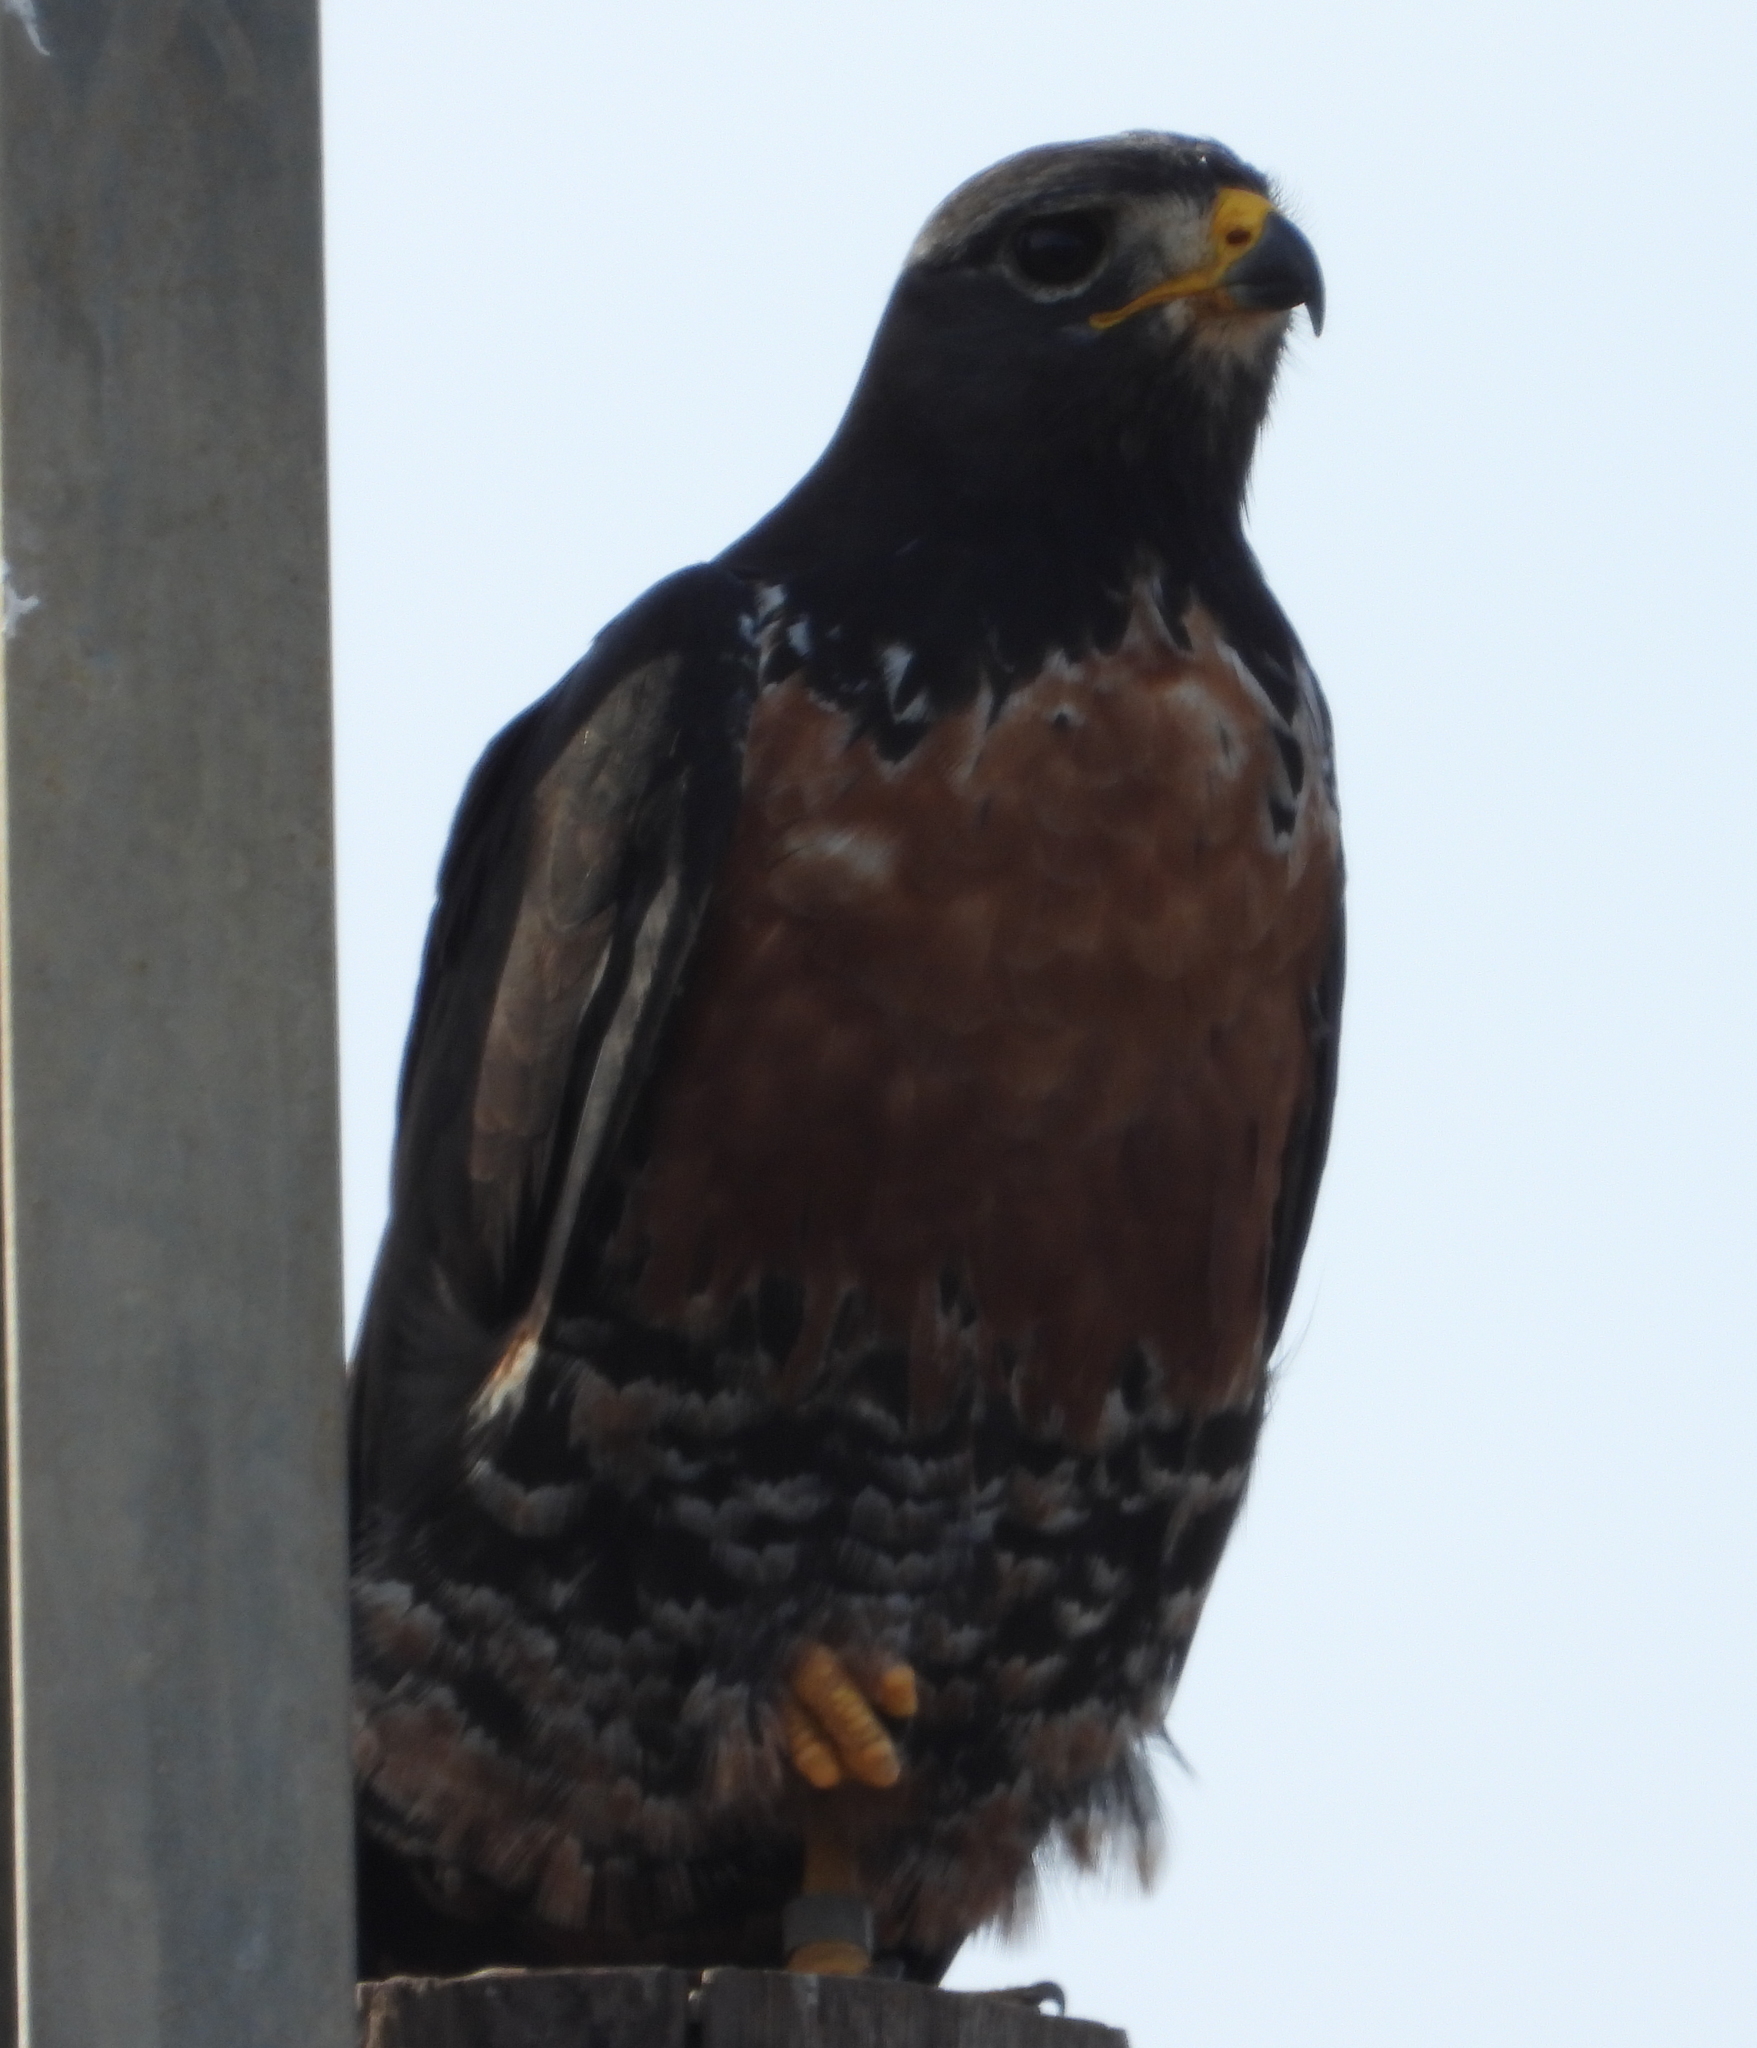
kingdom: Animalia
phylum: Chordata
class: Aves
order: Accipitriformes
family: Accipitridae
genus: Buteo
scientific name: Buteo rufofuscus
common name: Jackal buzzard
